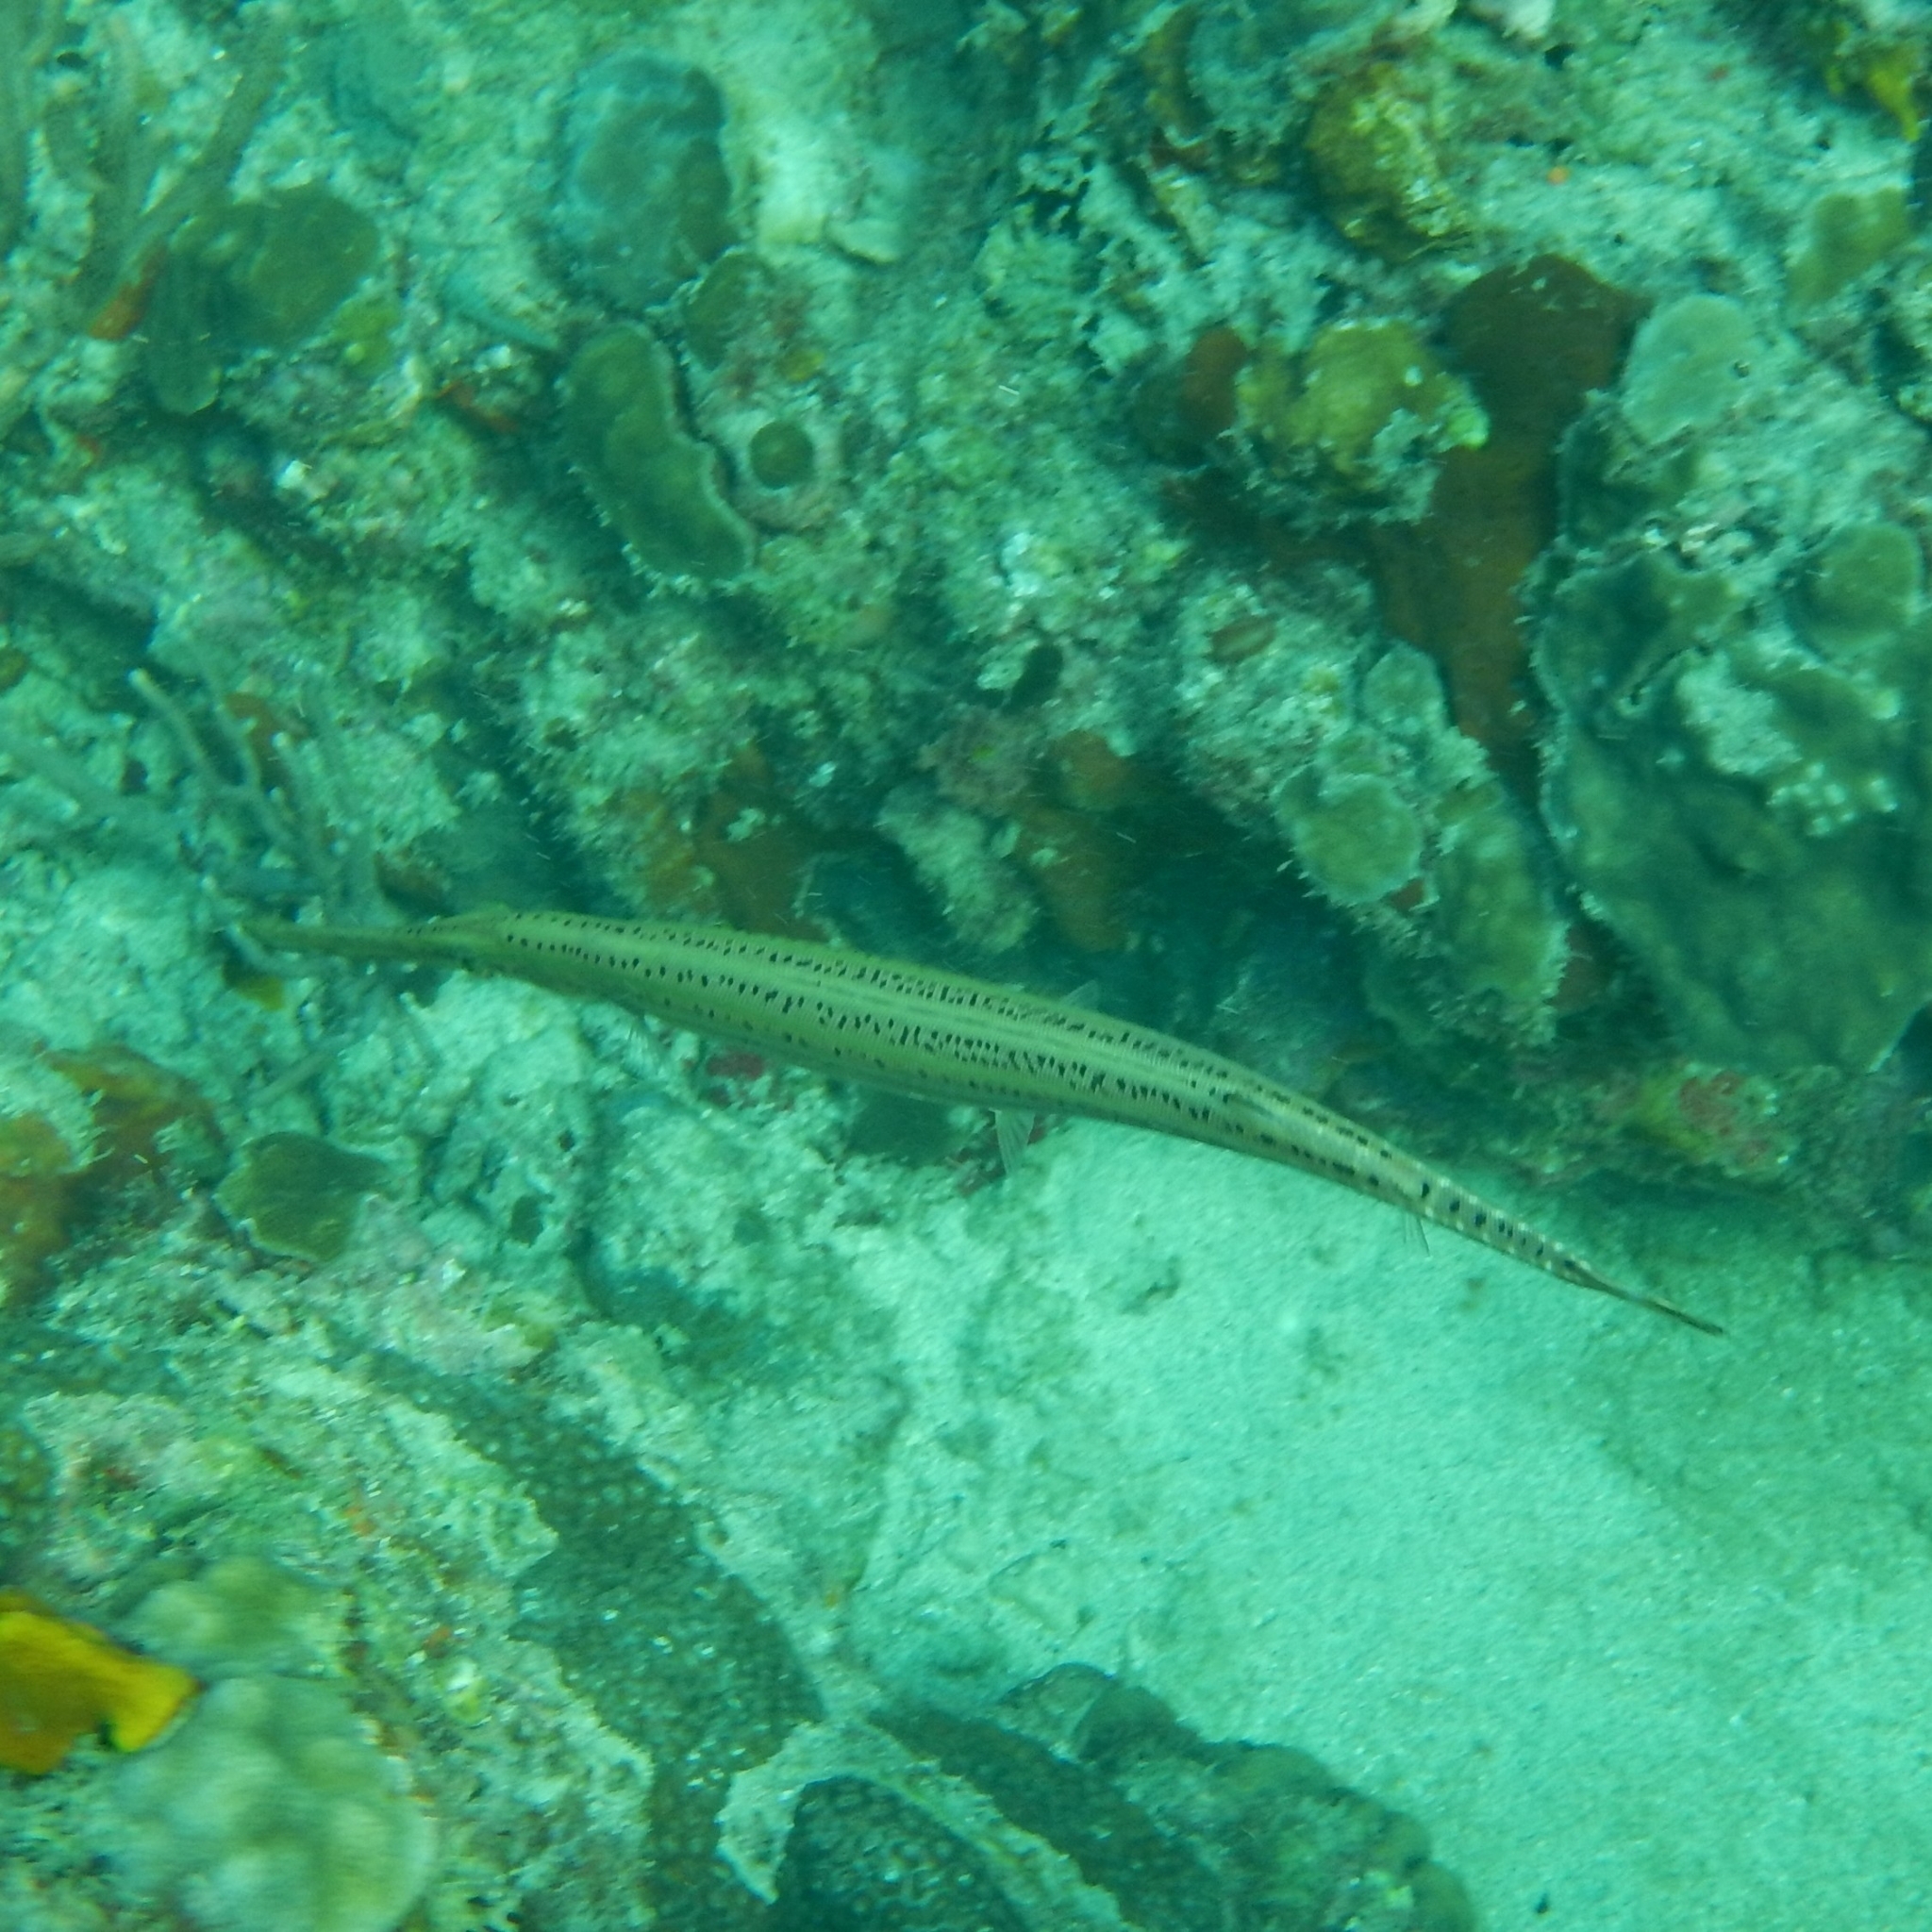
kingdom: Animalia
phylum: Chordata
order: Syngnathiformes
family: Aulostomidae
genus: Aulostomus
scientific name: Aulostomus maculatus
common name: West atlantic trumpetfish
